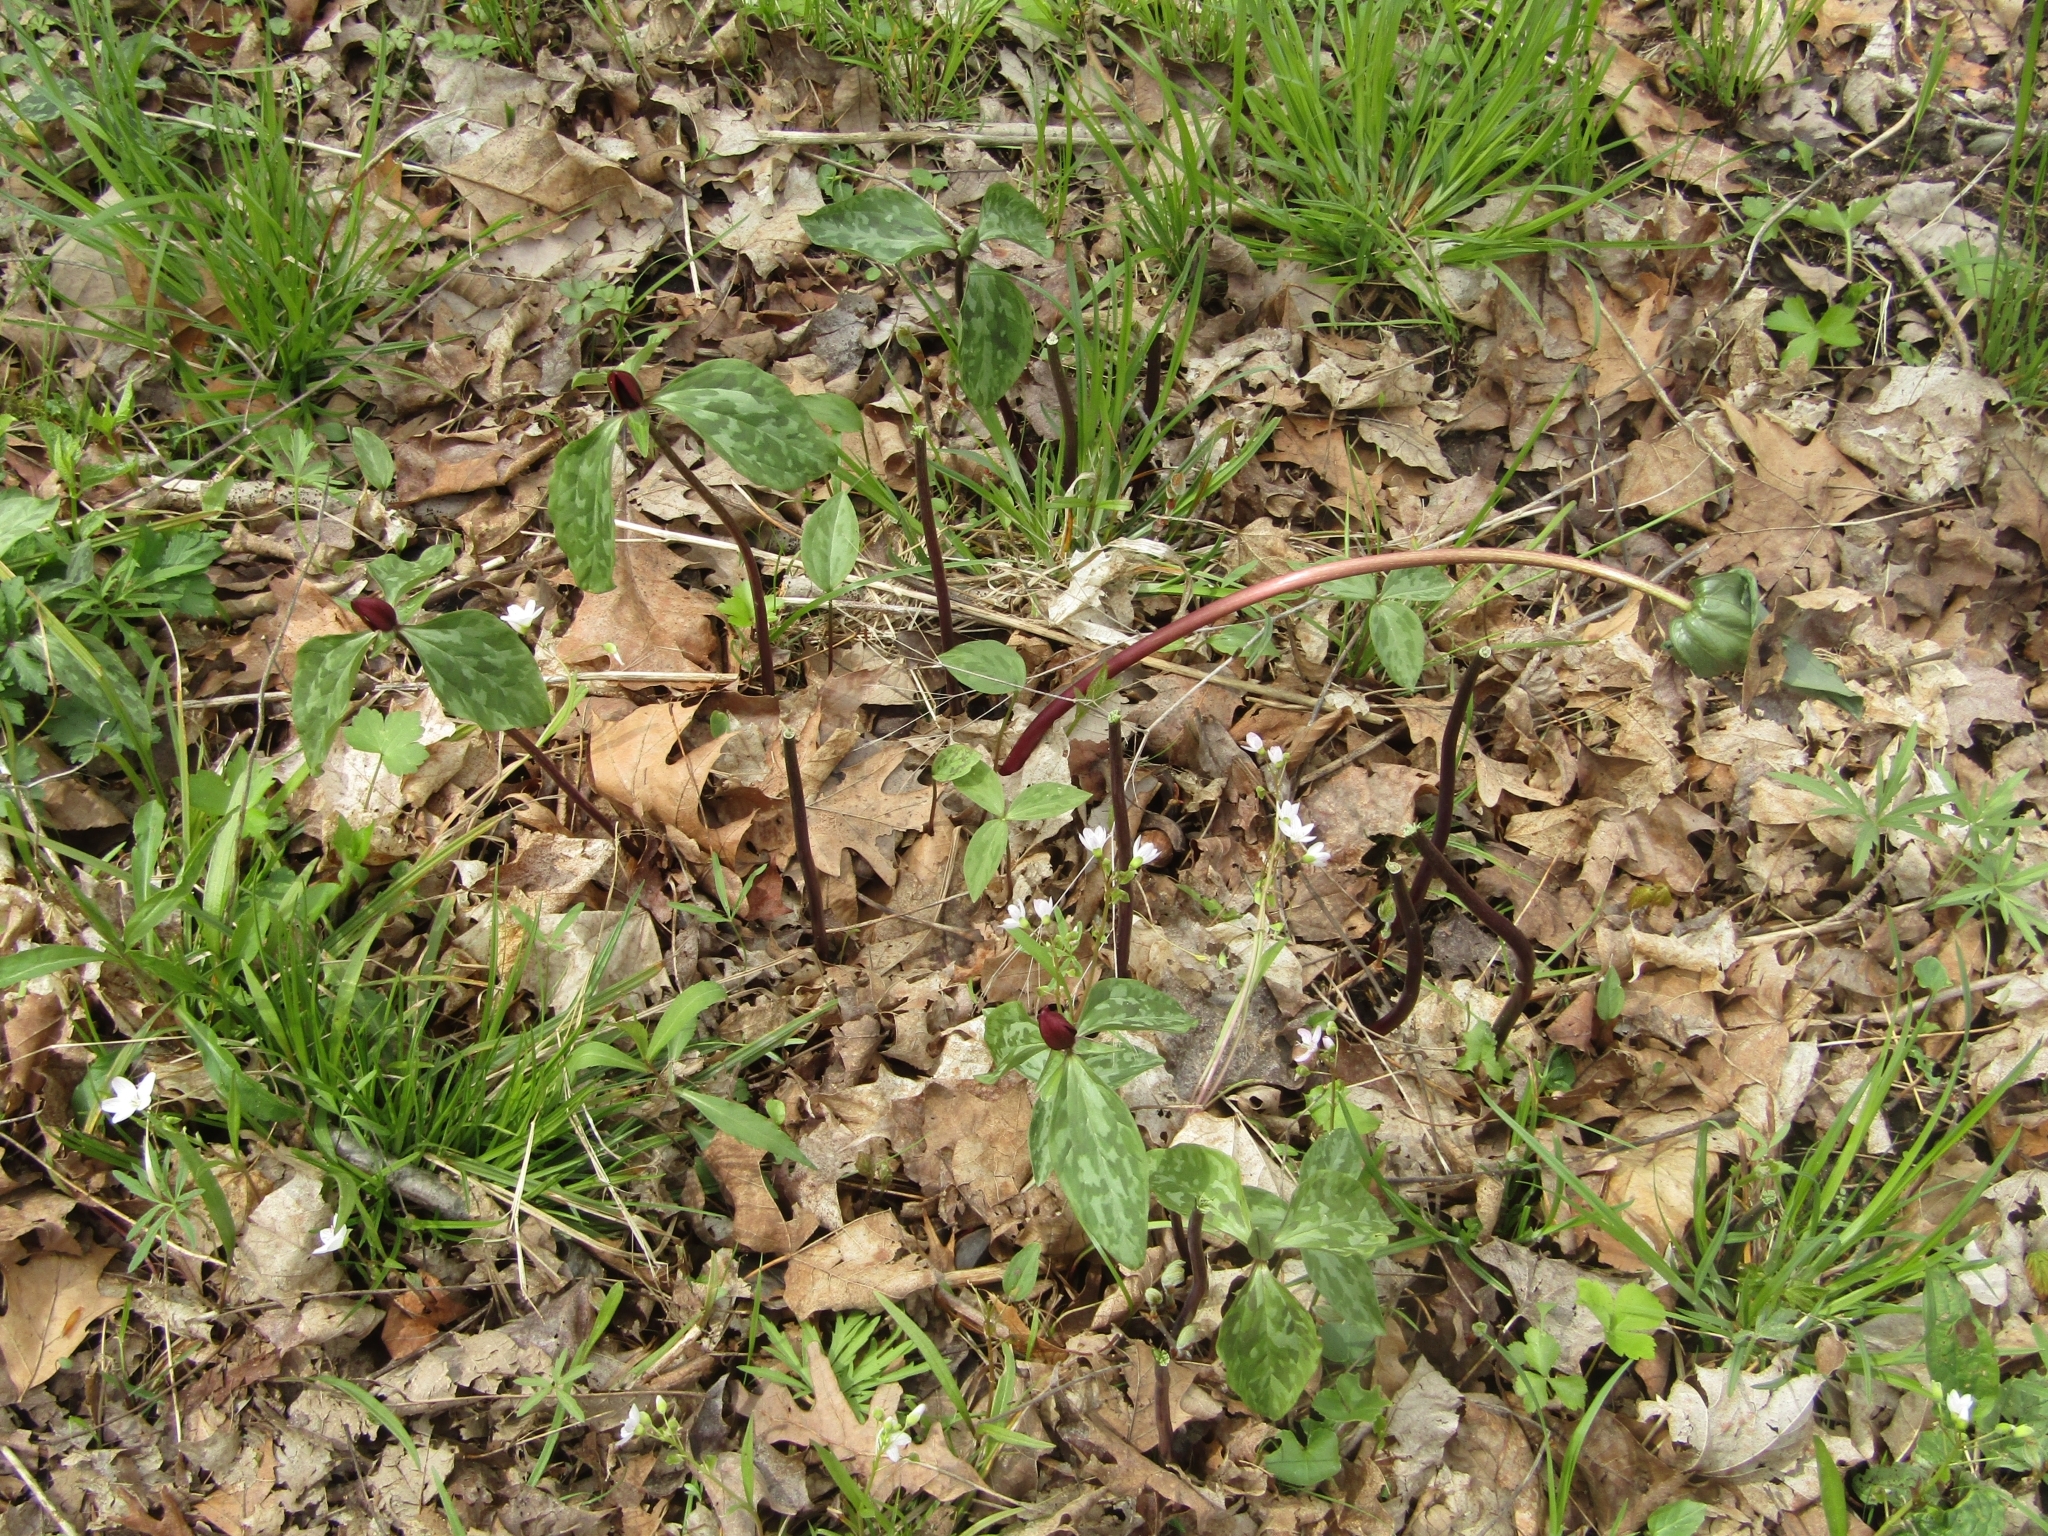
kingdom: Plantae
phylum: Tracheophyta
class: Liliopsida
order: Liliales
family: Melanthiaceae
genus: Trillium
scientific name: Trillium recurvatum
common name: Bloody butcher
